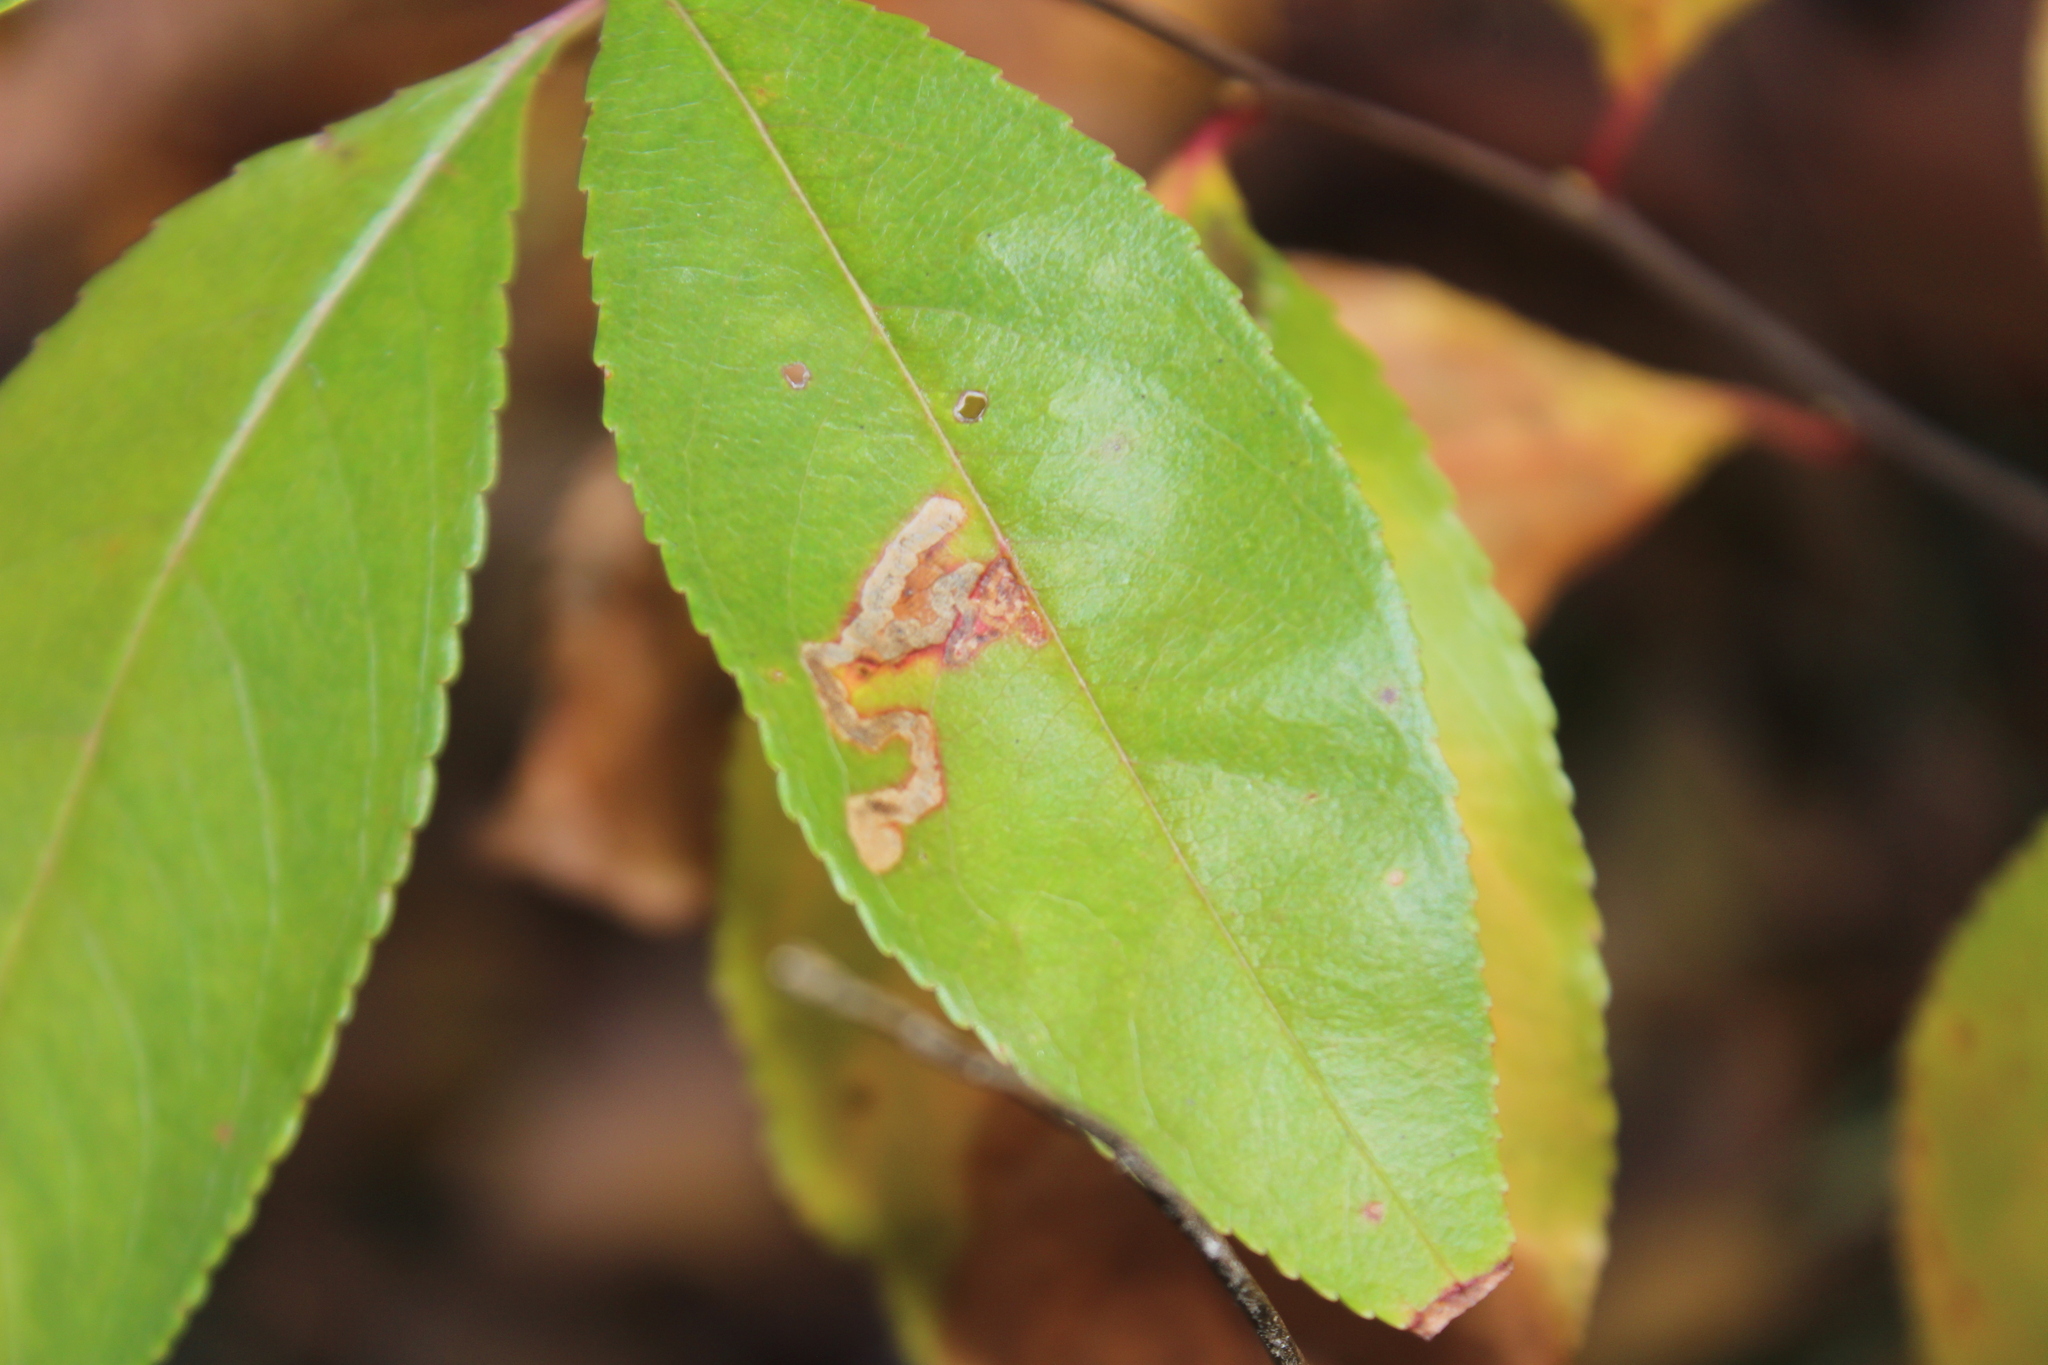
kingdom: Animalia
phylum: Arthropoda
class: Insecta
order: Lepidoptera
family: Nepticulidae
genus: Stigmella
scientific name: Stigmella prunifoliella
